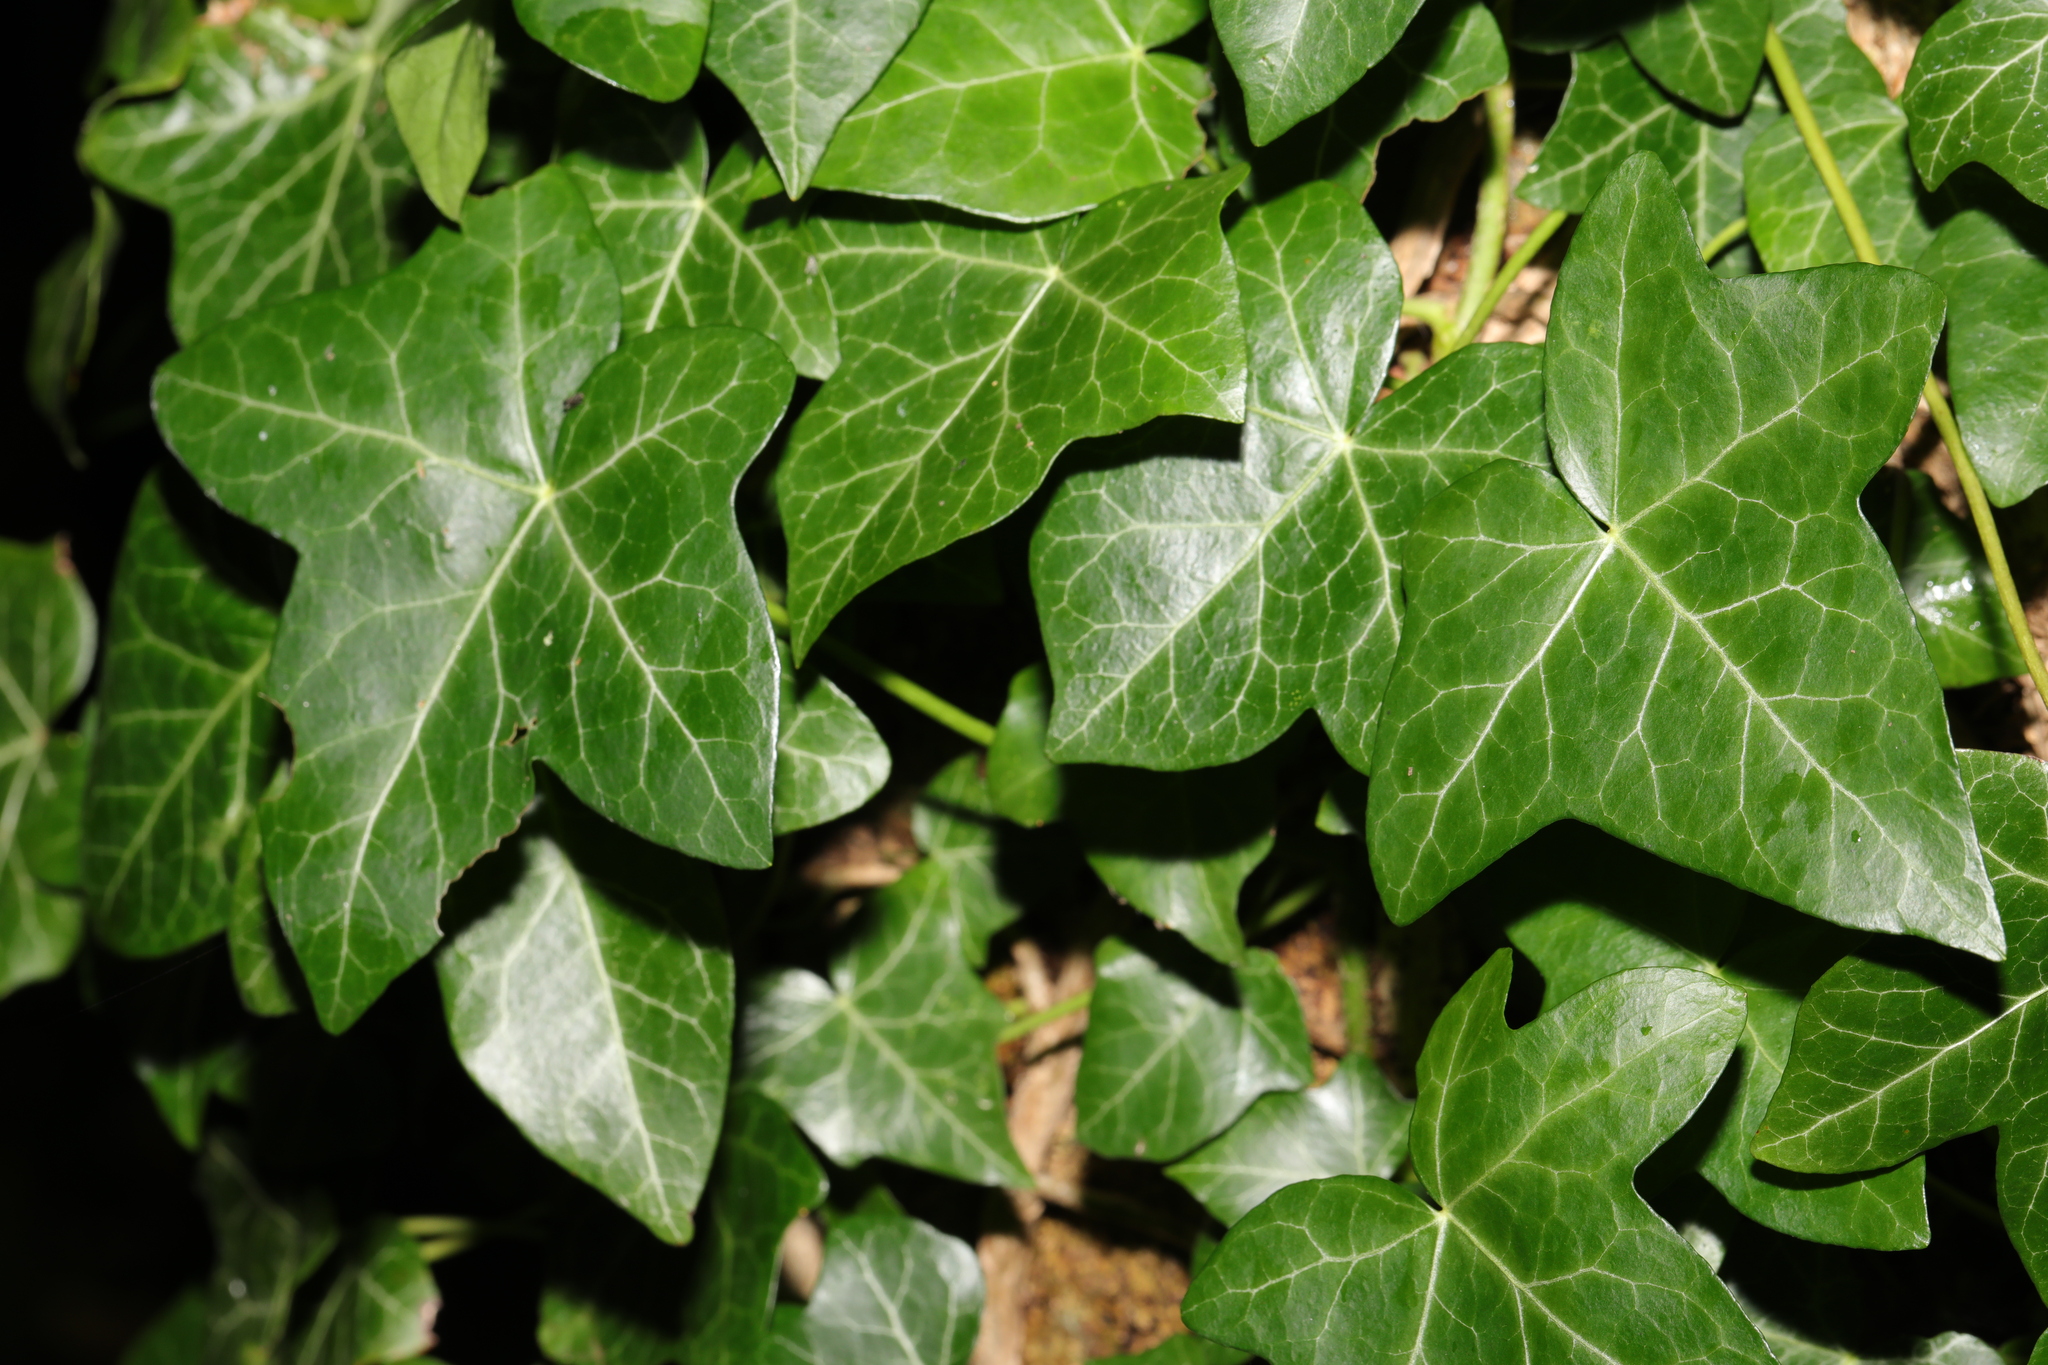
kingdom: Plantae
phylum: Tracheophyta
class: Magnoliopsida
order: Apiales
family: Araliaceae
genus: Hedera
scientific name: Hedera helix
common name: Ivy
